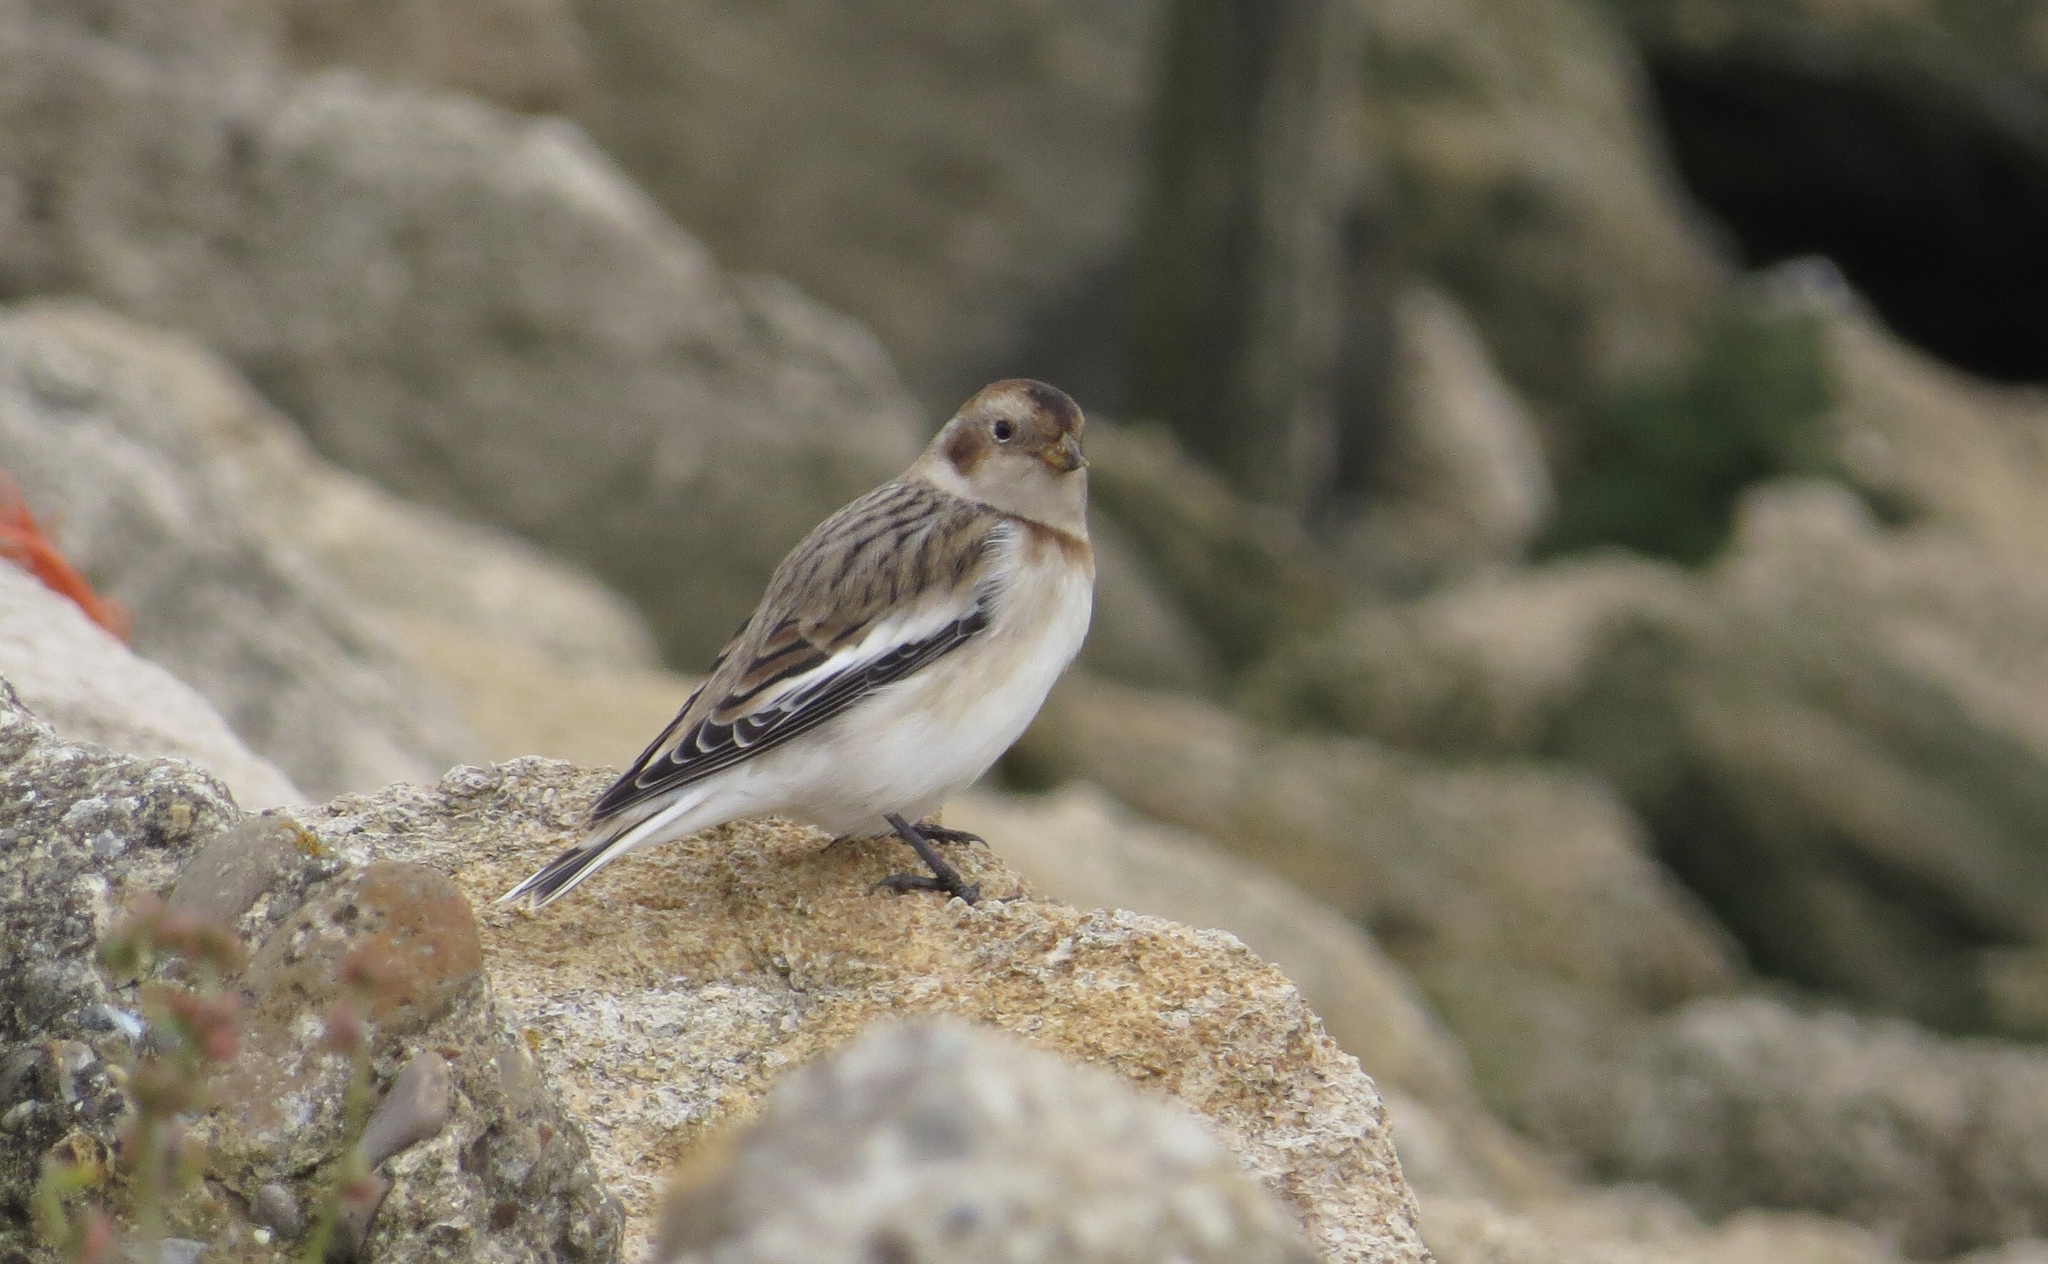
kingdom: Animalia
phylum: Chordata
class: Aves
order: Passeriformes
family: Calcariidae
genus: Plectrophenax
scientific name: Plectrophenax nivalis
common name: Snow bunting
